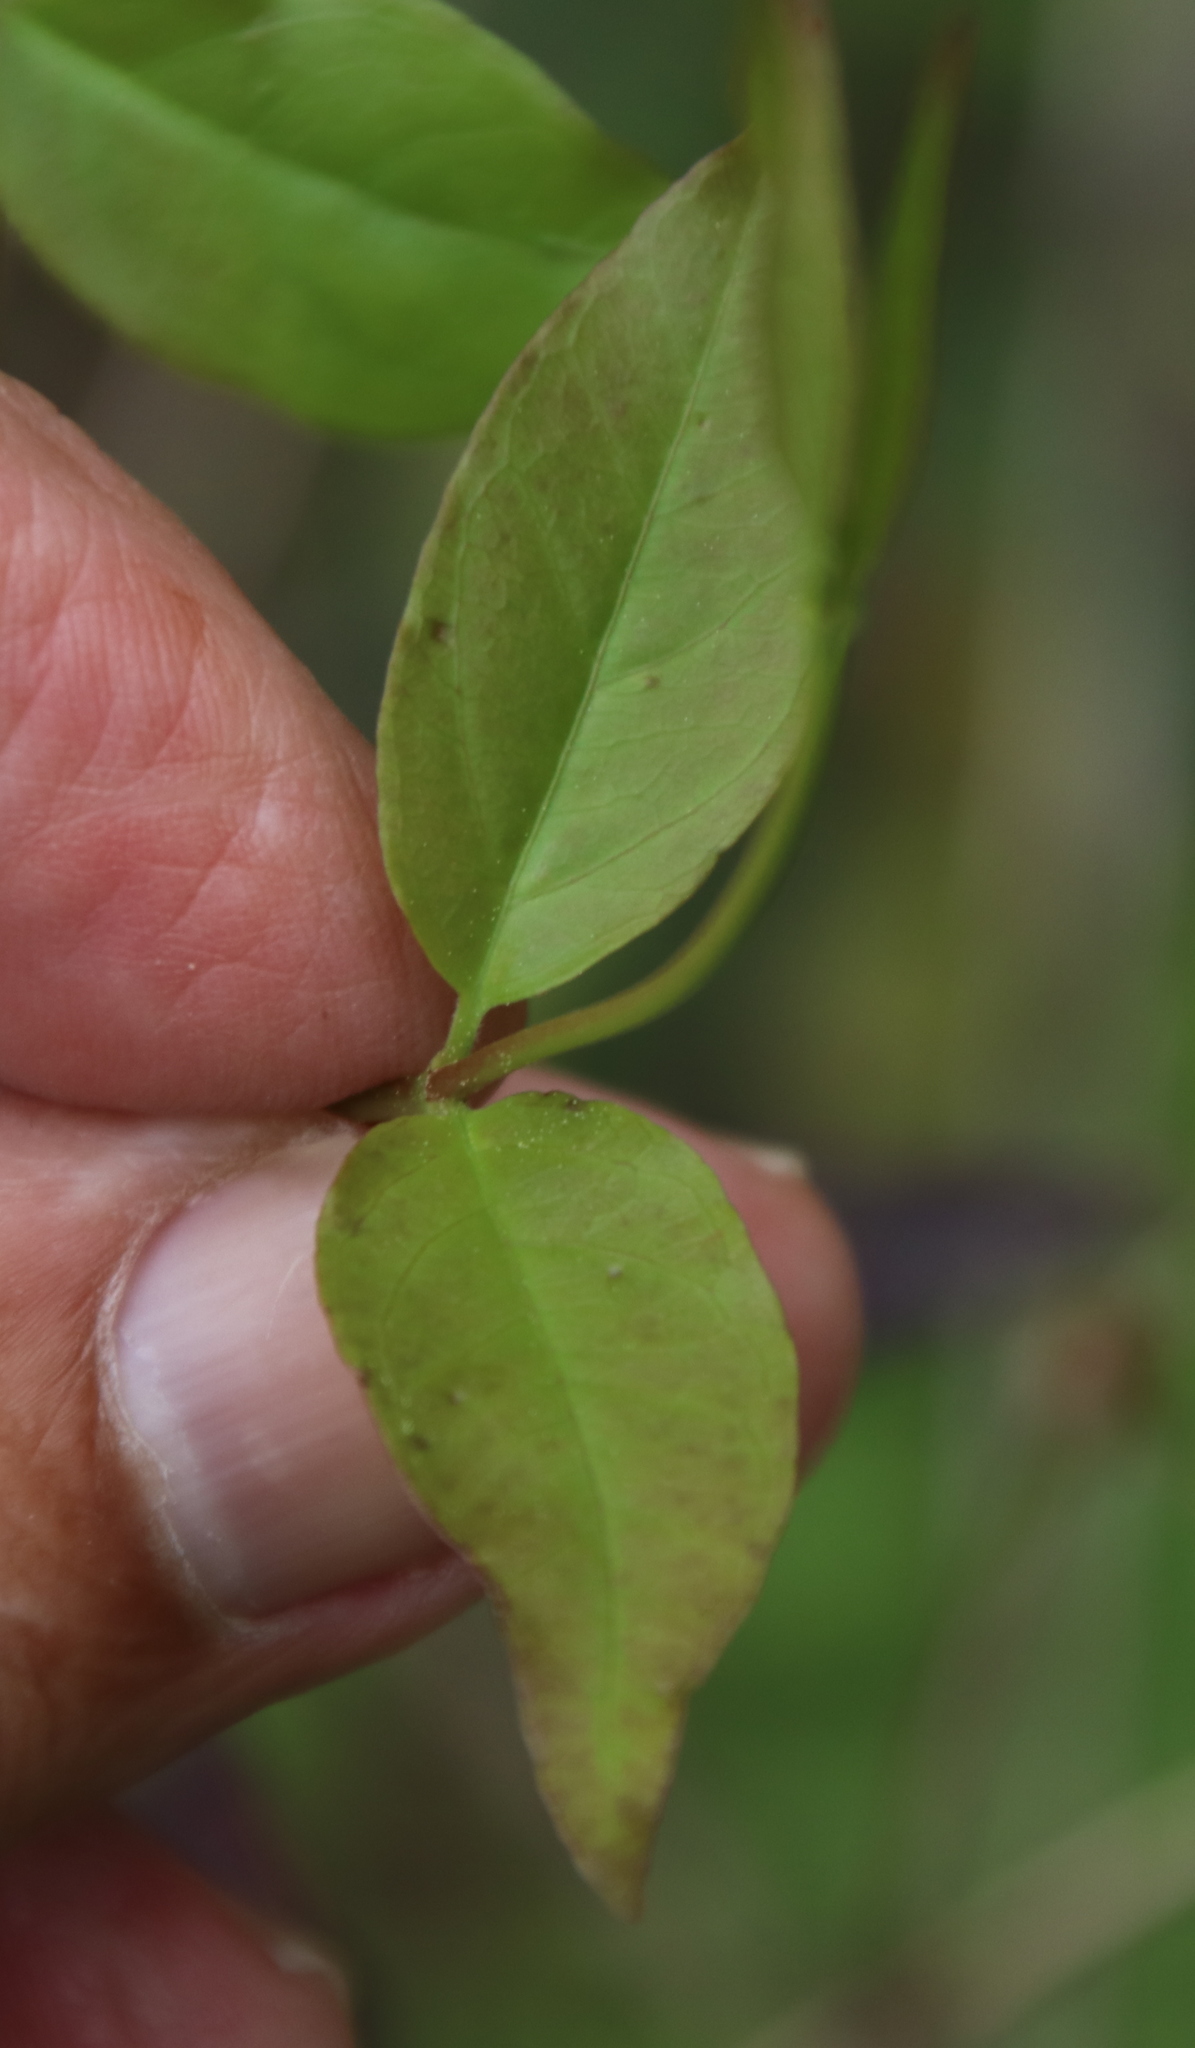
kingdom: Plantae
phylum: Tracheophyta
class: Magnoliopsida
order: Gentianales
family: Gelsemiaceae
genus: Gelsemium
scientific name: Gelsemium rankinii
